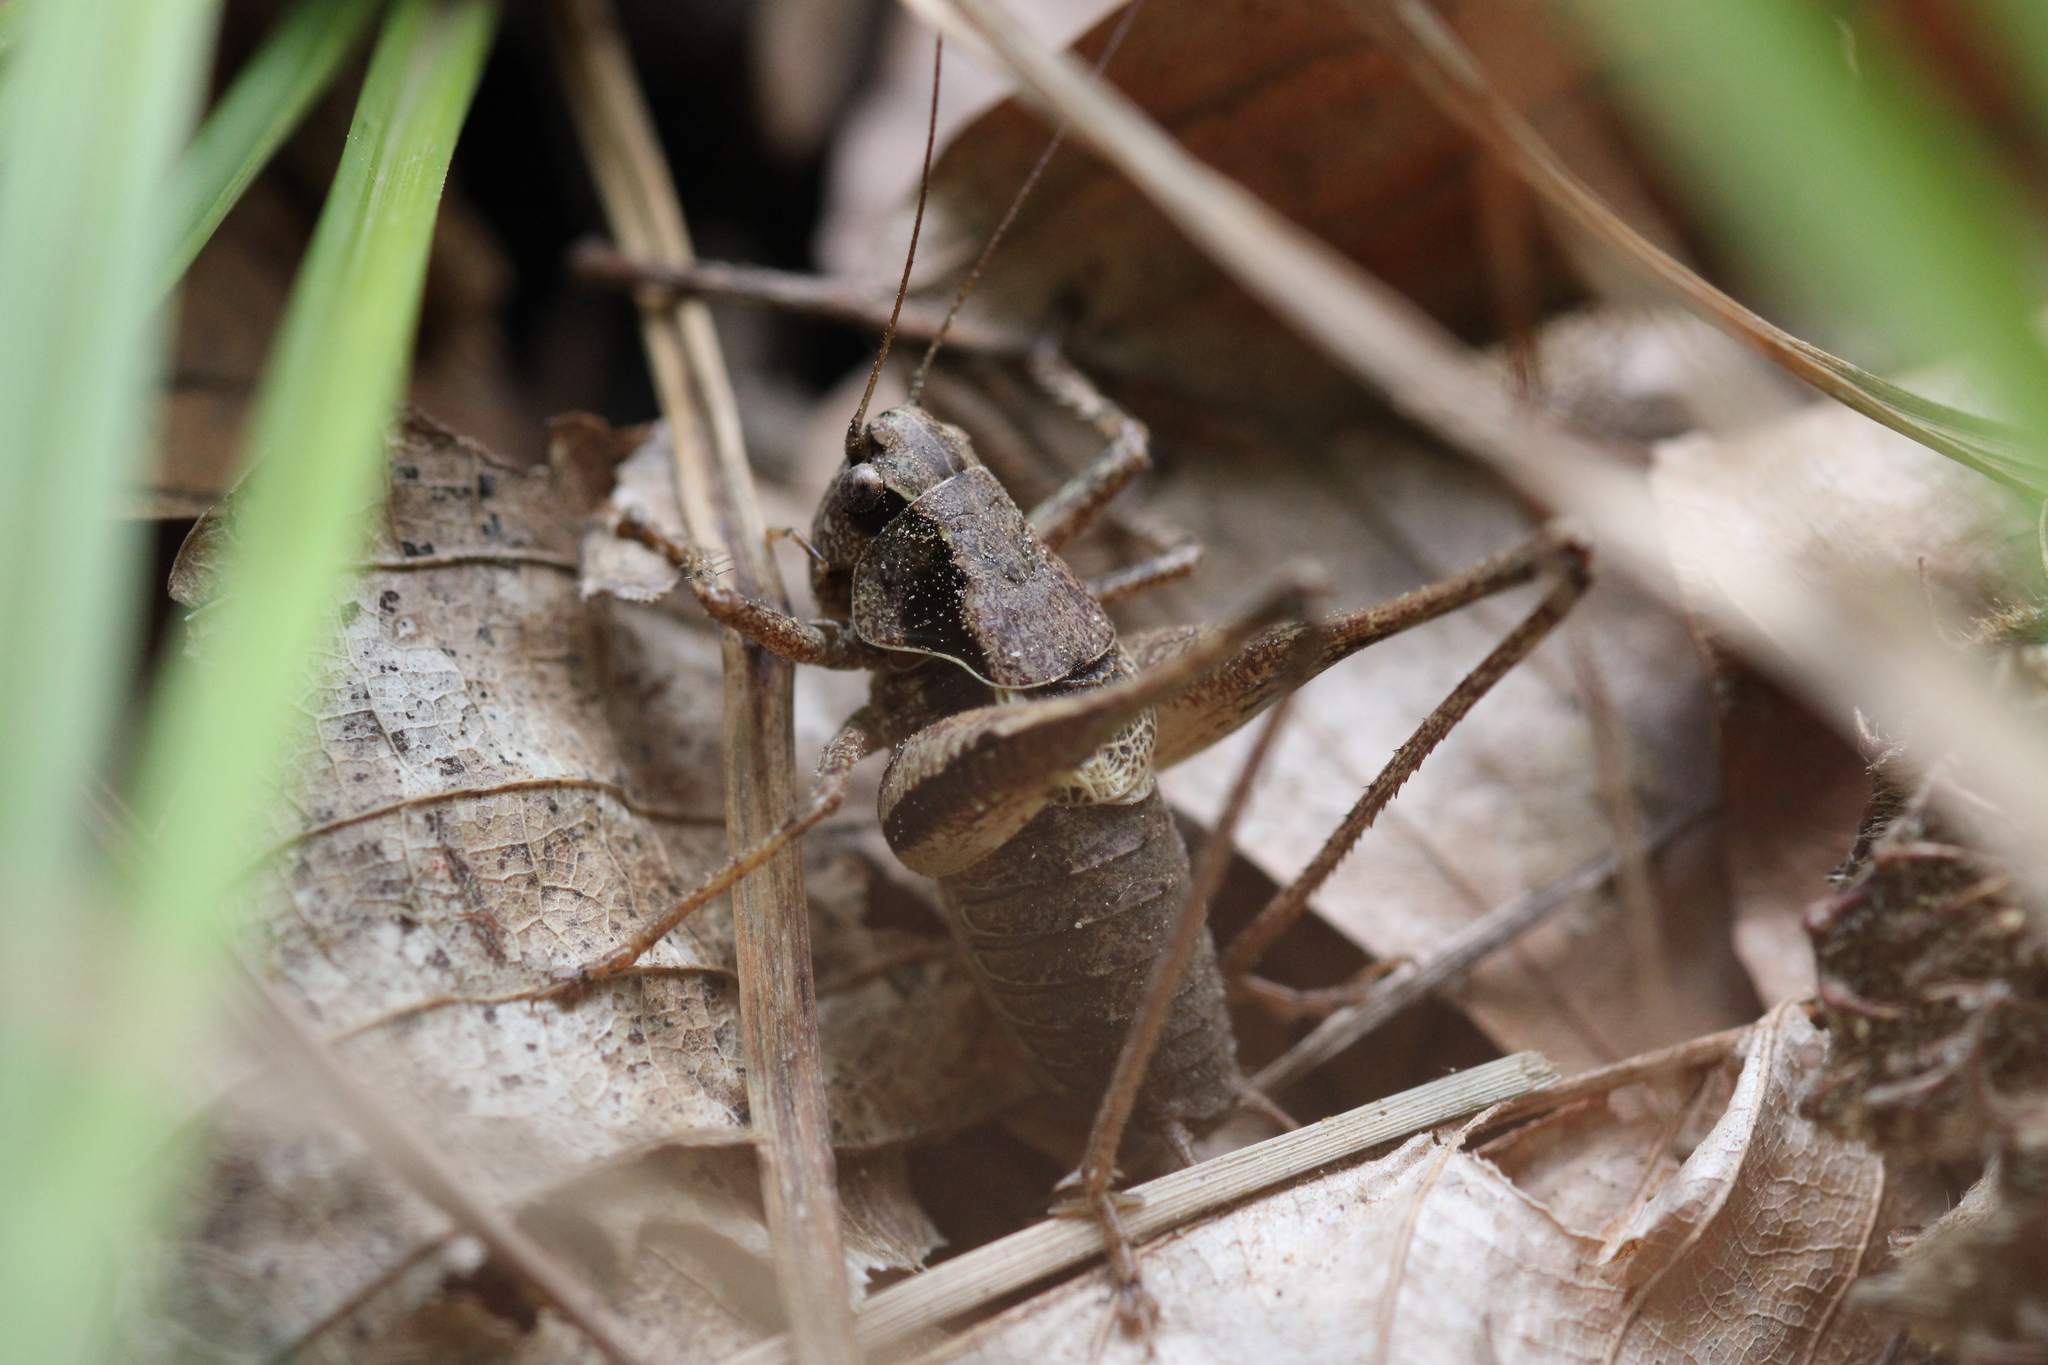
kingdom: Animalia
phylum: Arthropoda
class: Insecta
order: Orthoptera
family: Tettigoniidae
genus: Pholidoptera
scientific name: Pholidoptera griseoaptera
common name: Dark bush-cricket
